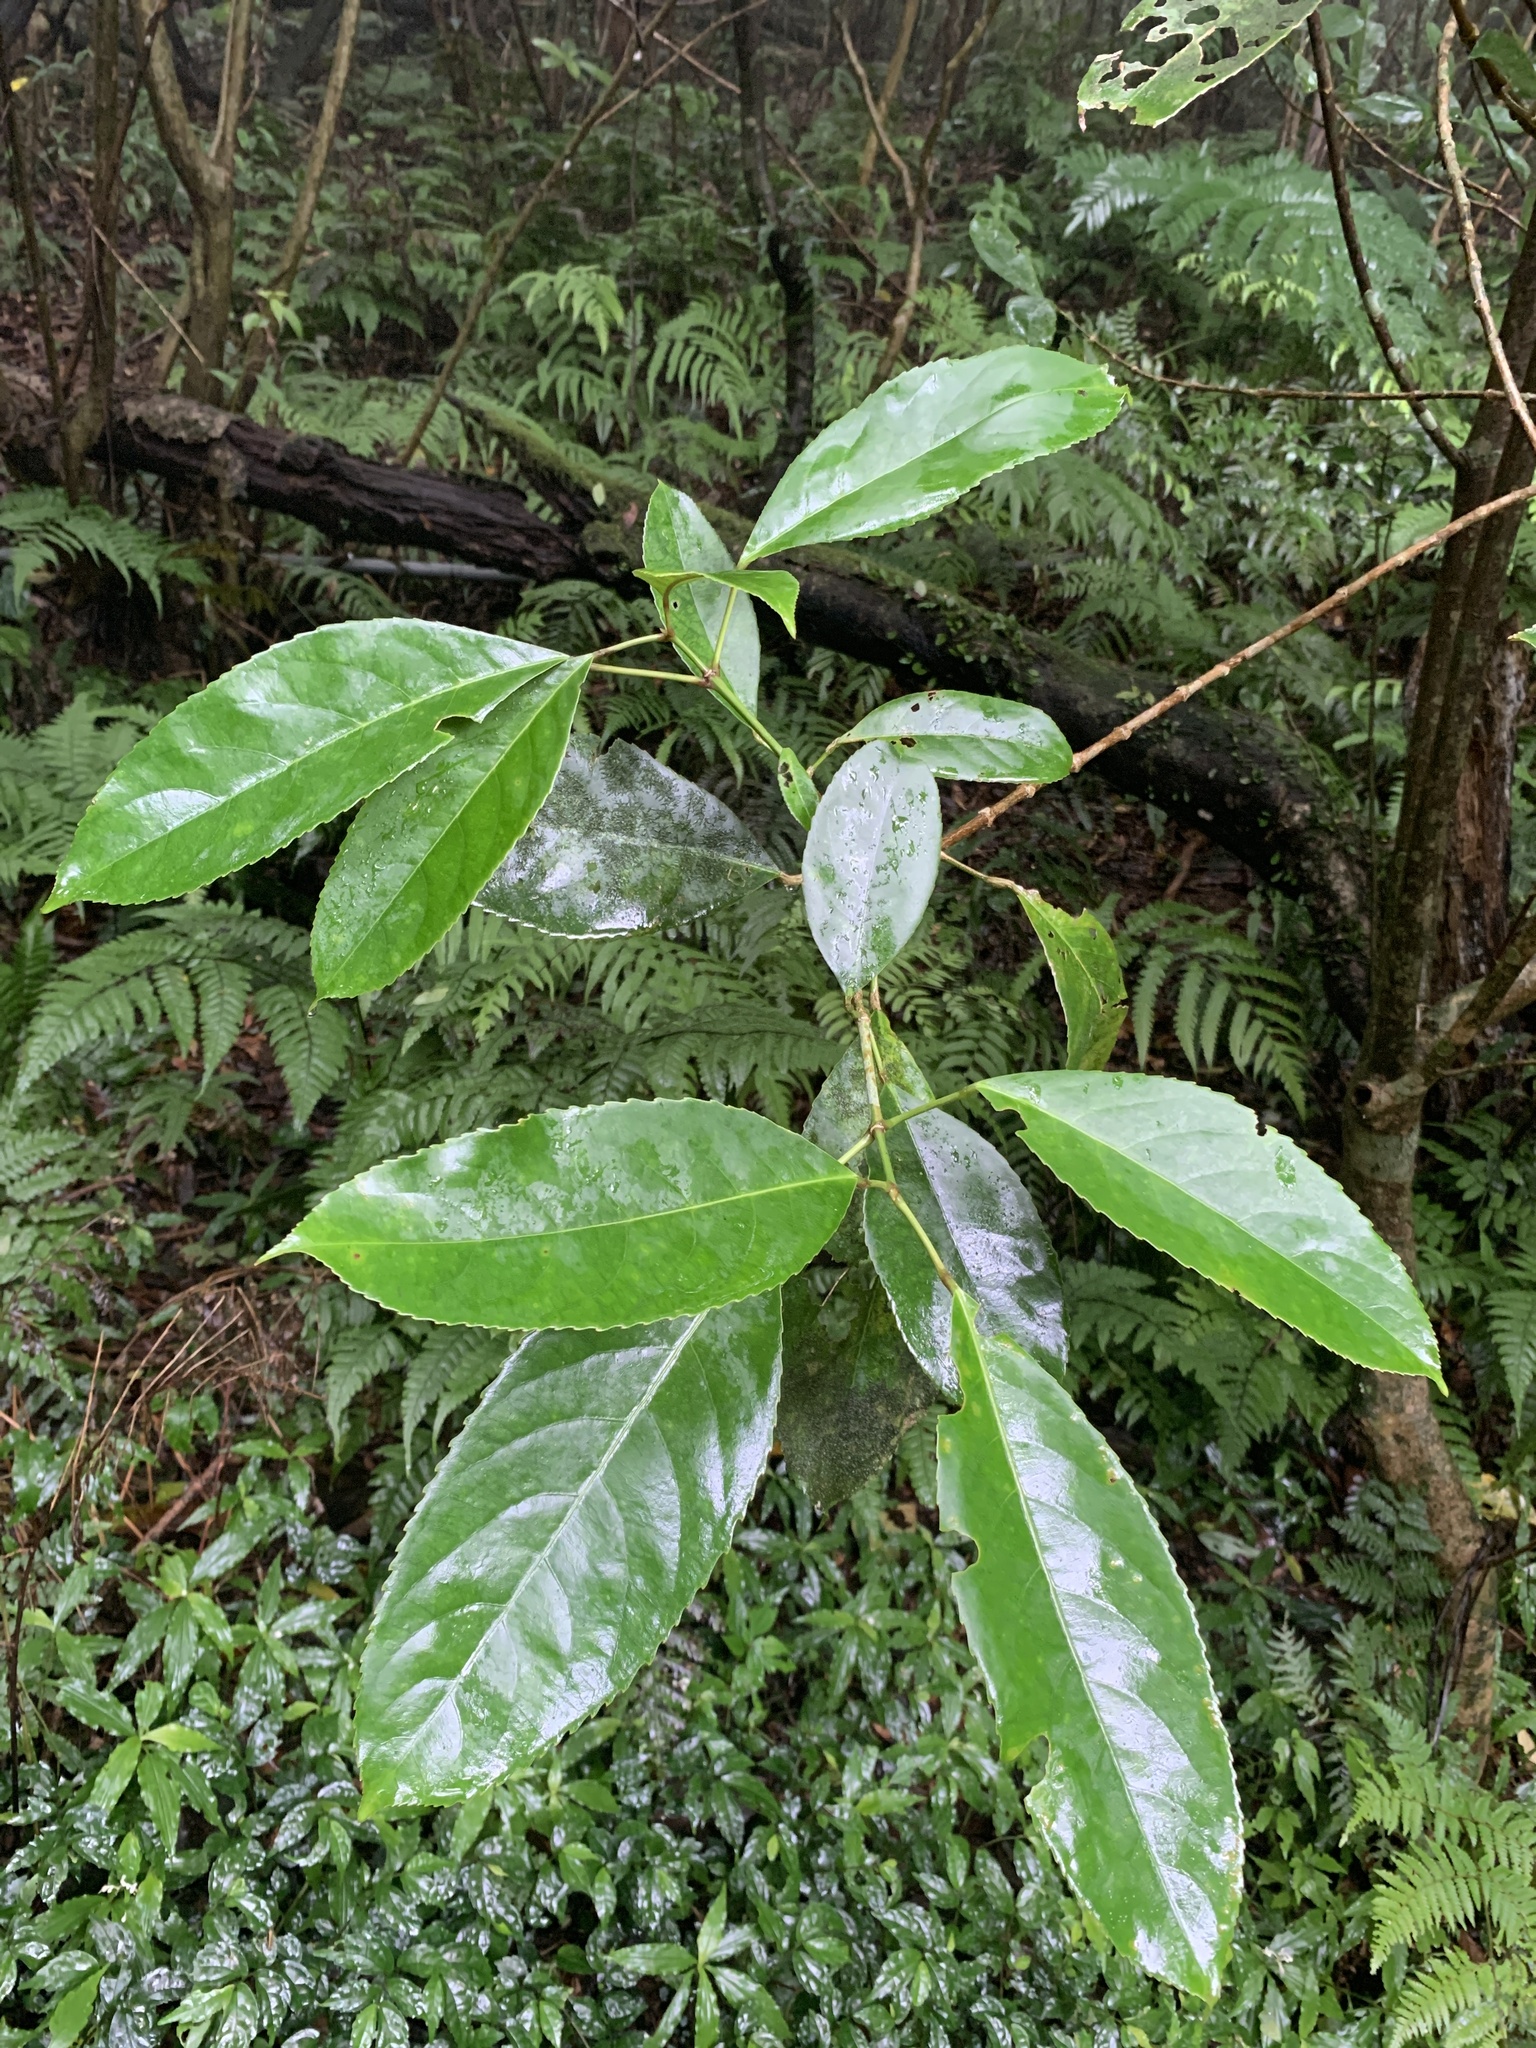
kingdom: Plantae
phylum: Tracheophyta
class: Magnoliopsida
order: Crossosomatales
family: Staphyleaceae
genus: Turpinia
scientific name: Turpinia formosana
